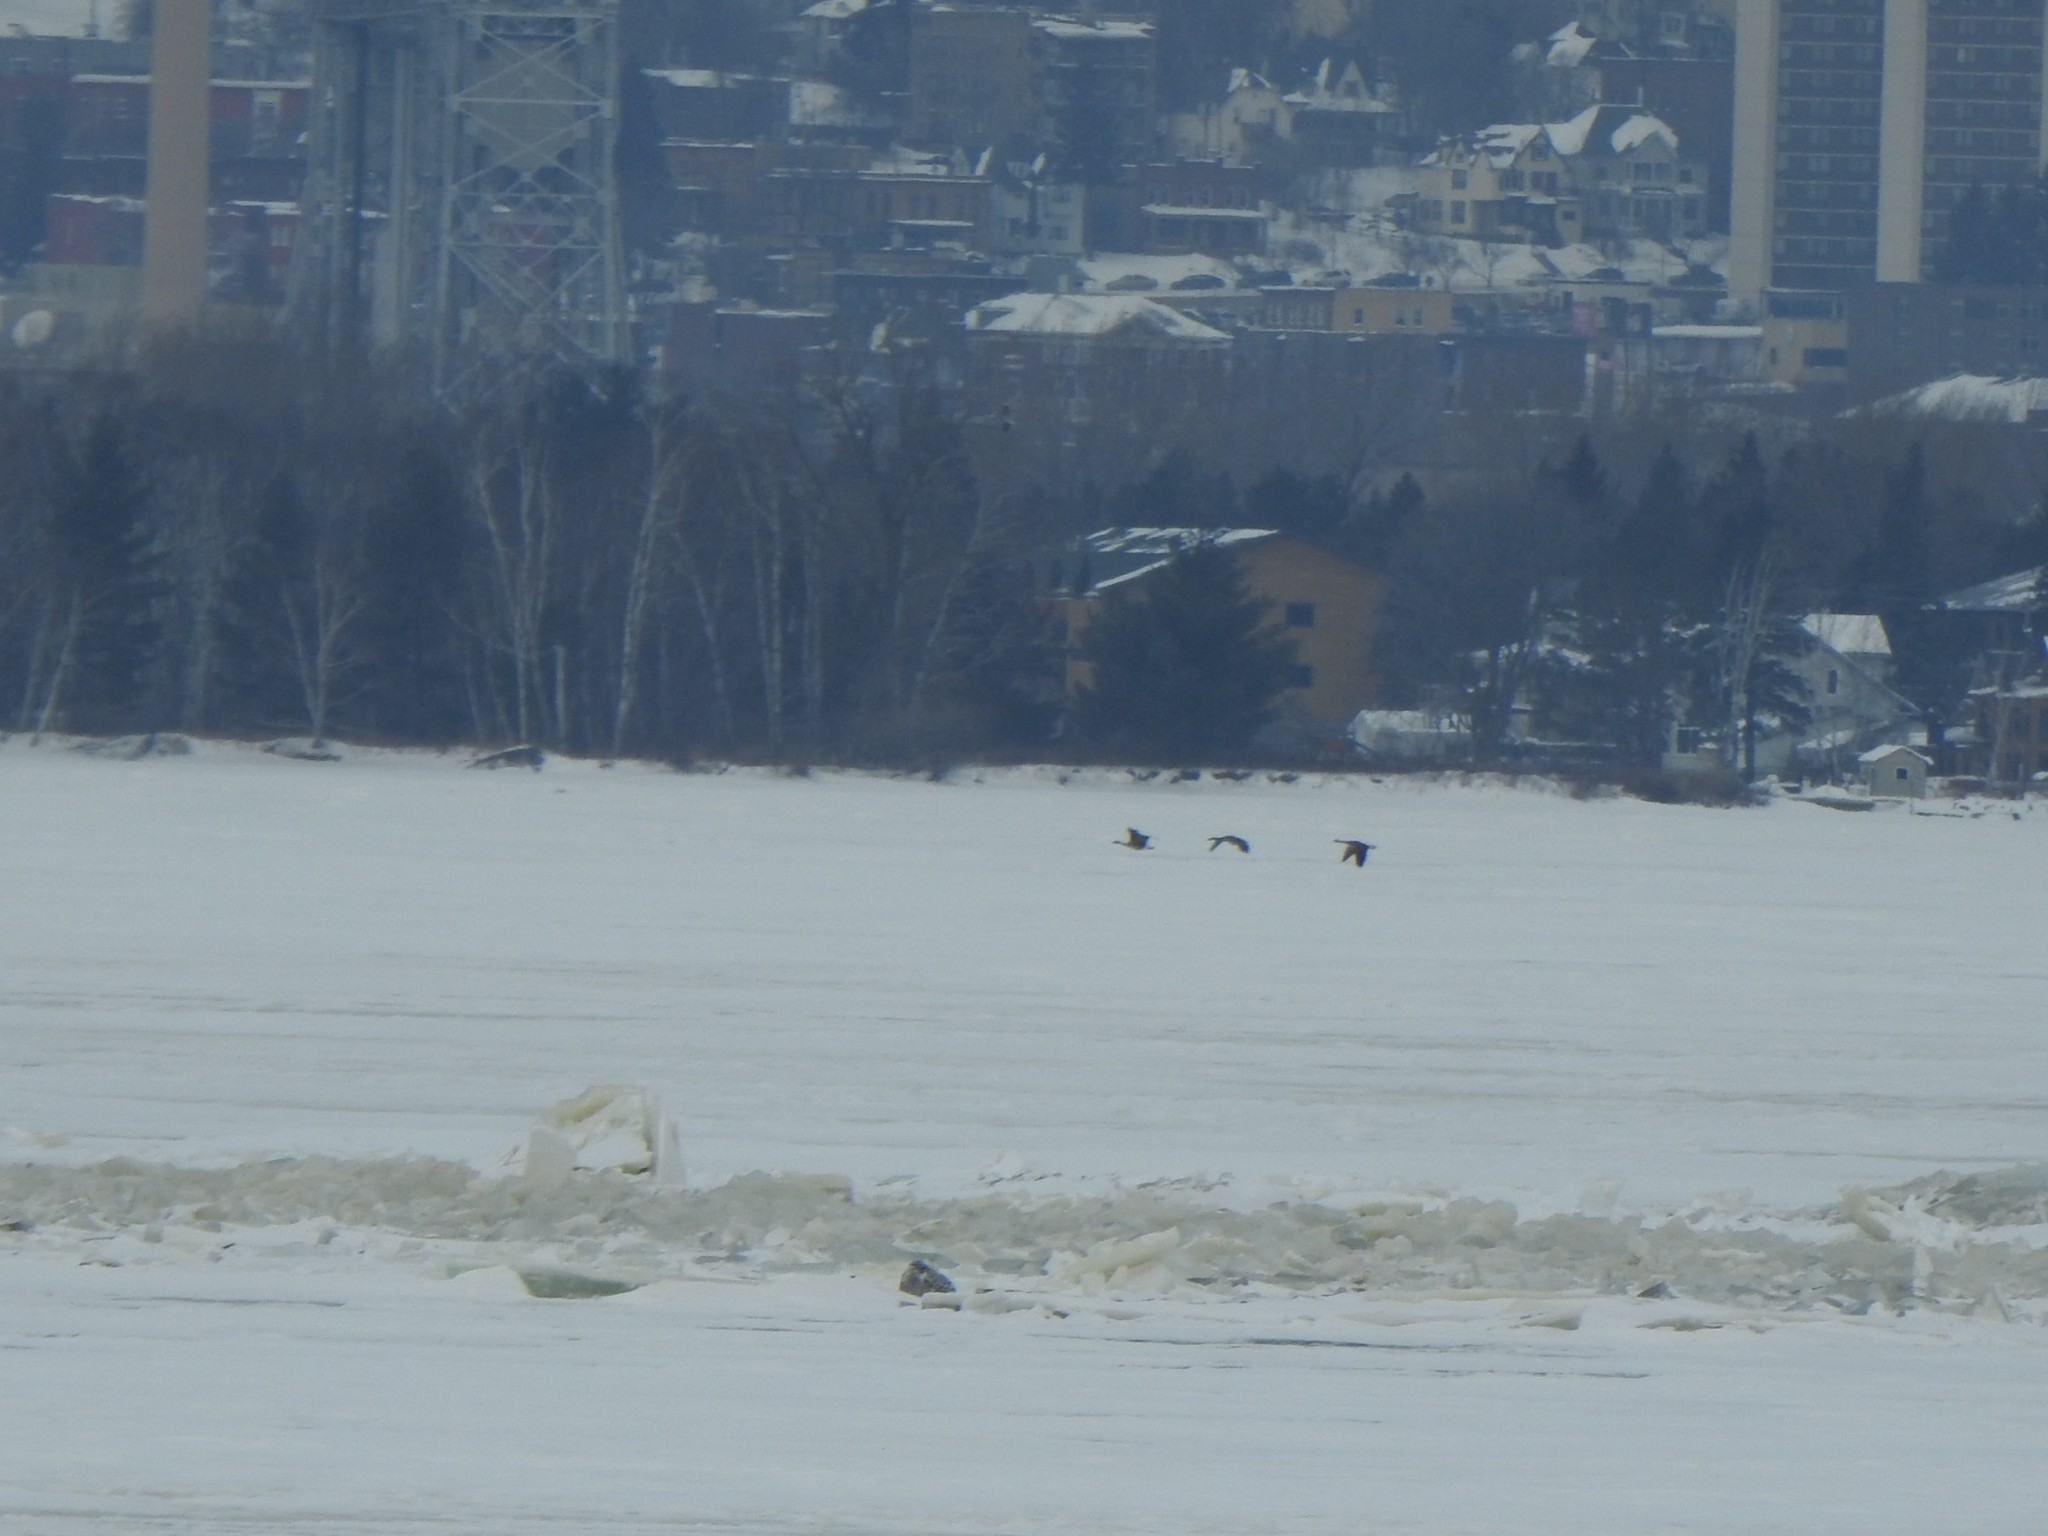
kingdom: Animalia
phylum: Chordata
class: Aves
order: Strigiformes
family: Strigidae
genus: Bubo
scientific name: Bubo scandiacus
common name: Snowy owl
